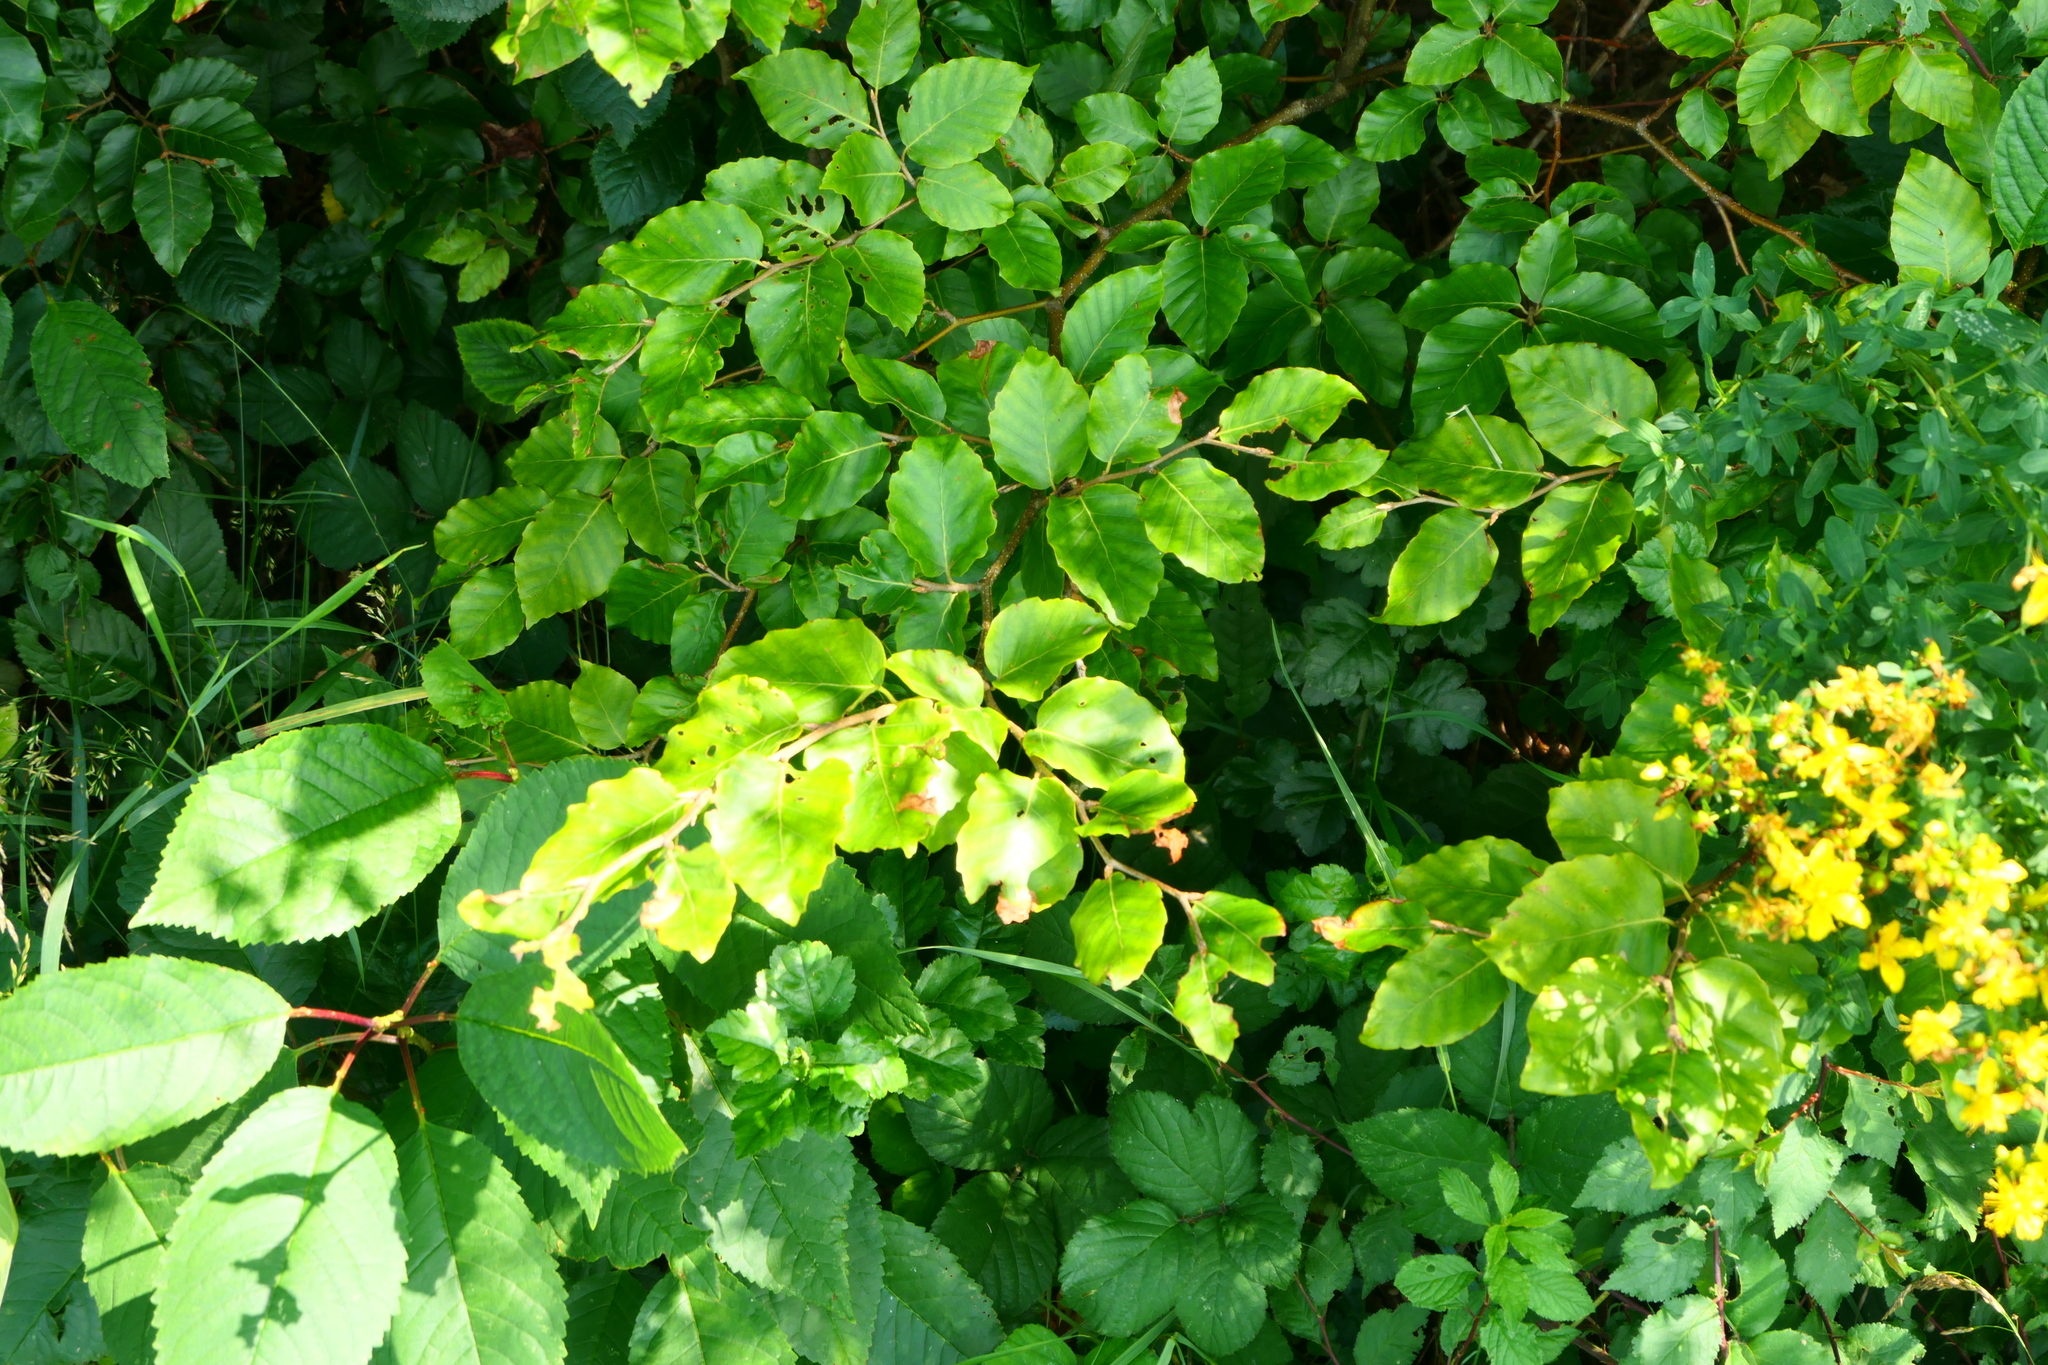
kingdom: Plantae
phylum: Tracheophyta
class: Magnoliopsida
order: Fagales
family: Fagaceae
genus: Fagus
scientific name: Fagus sylvatica
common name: Beech
